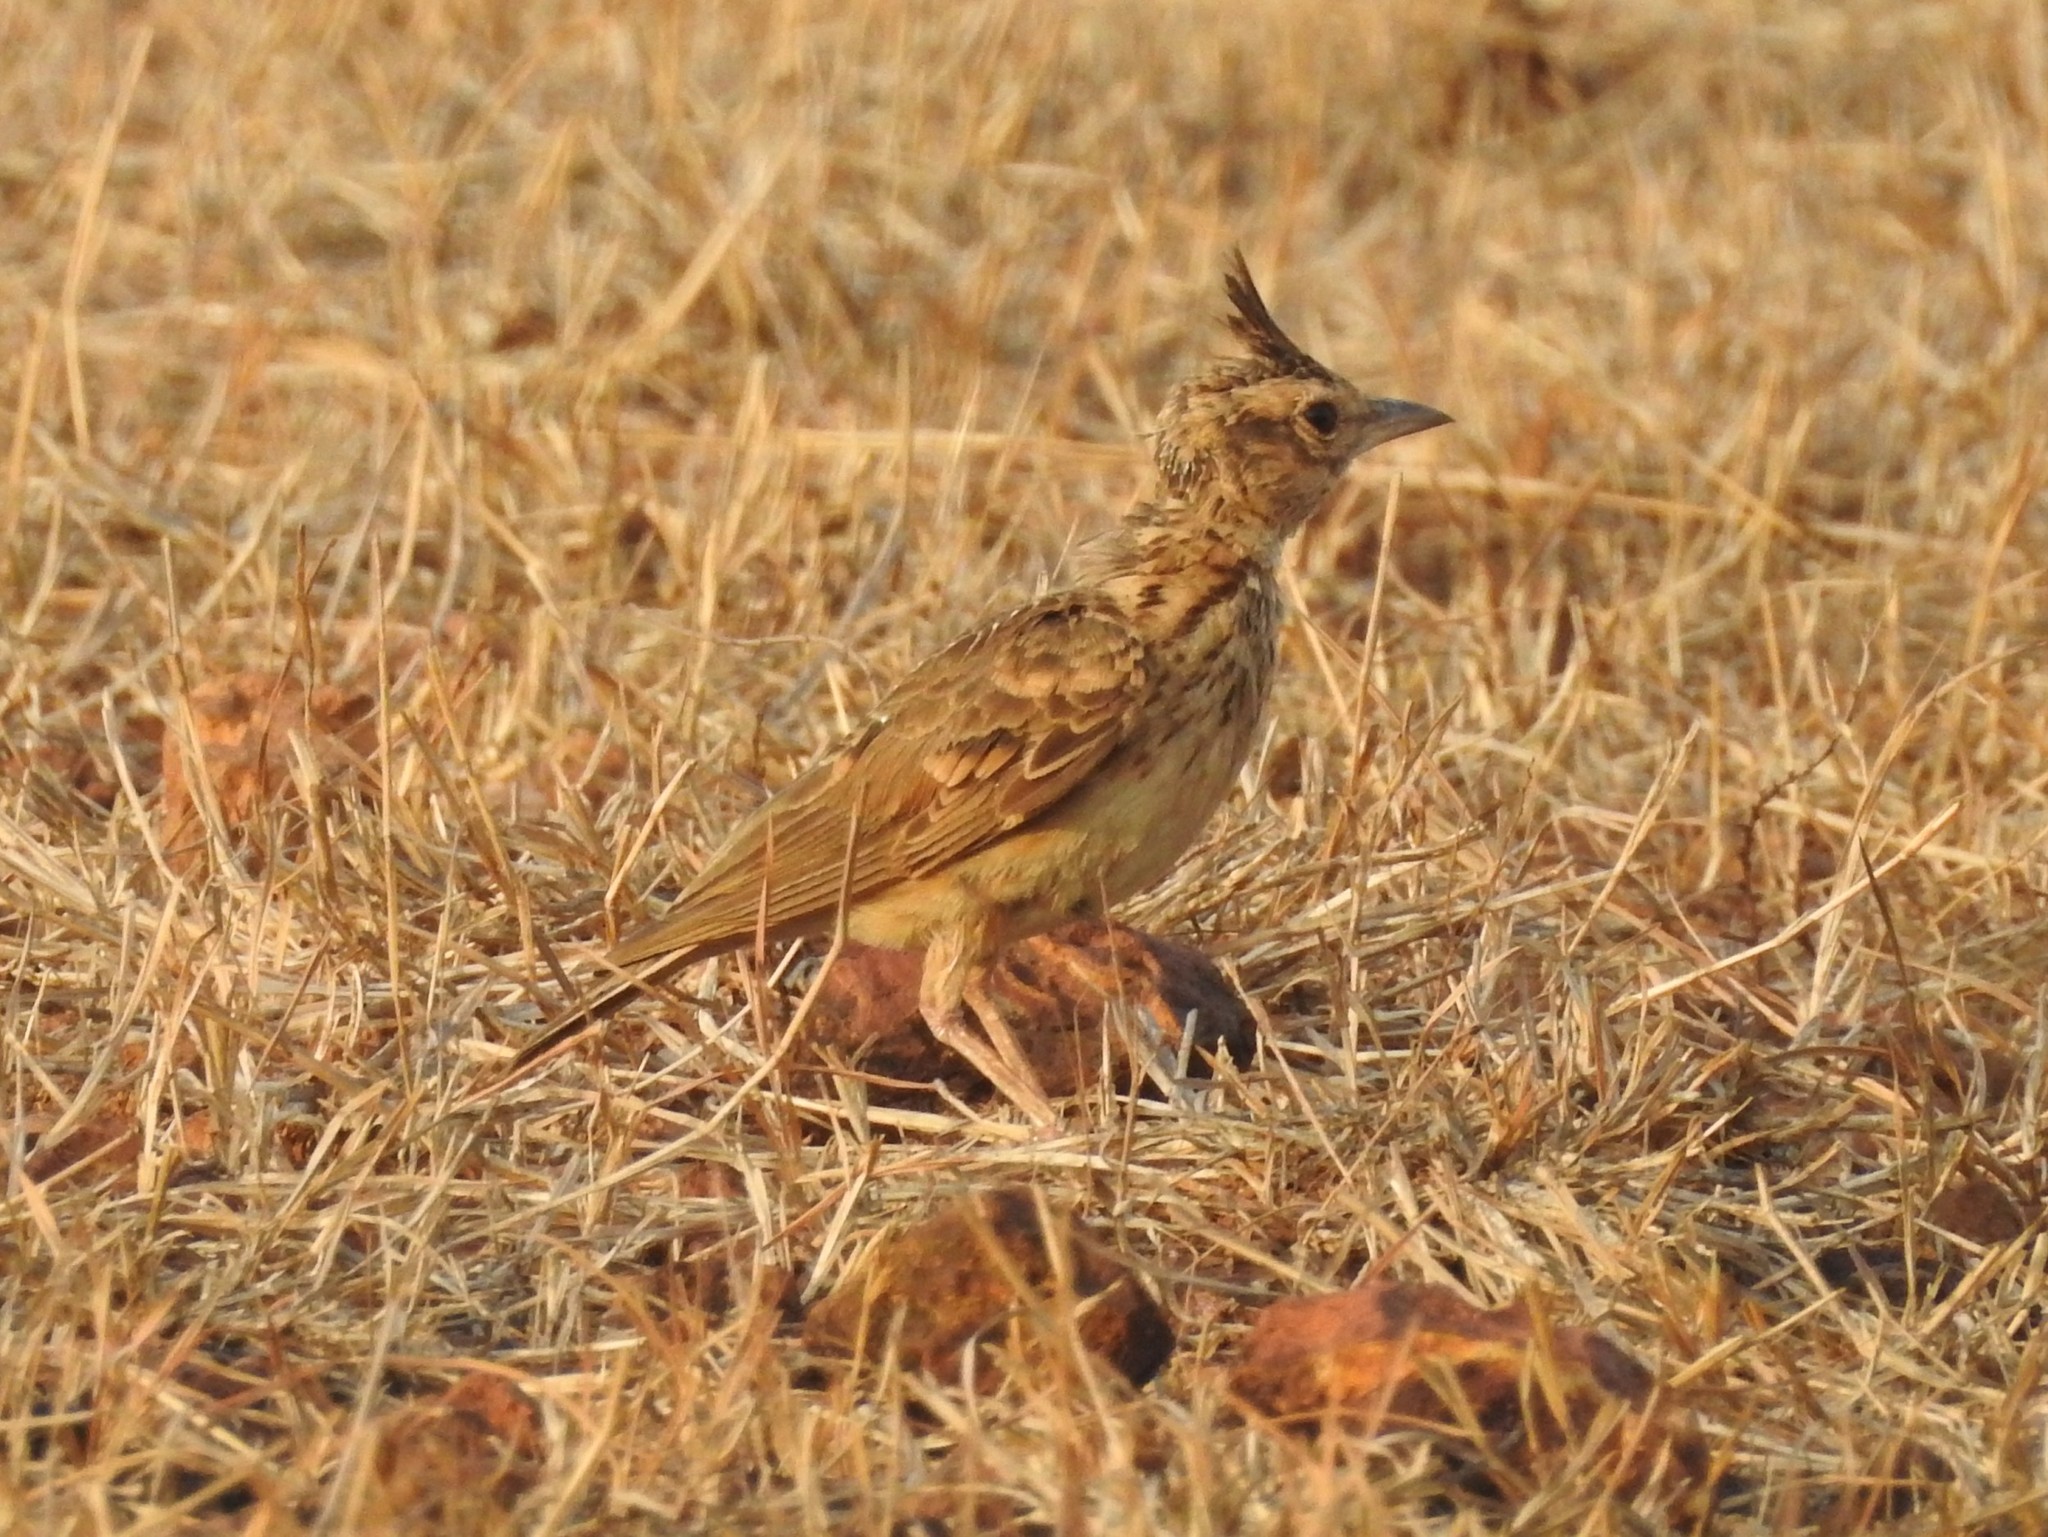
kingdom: Animalia
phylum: Chordata
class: Aves
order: Passeriformes
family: Alaudidae
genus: Galerida
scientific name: Galerida malabarica
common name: Malabar lark
